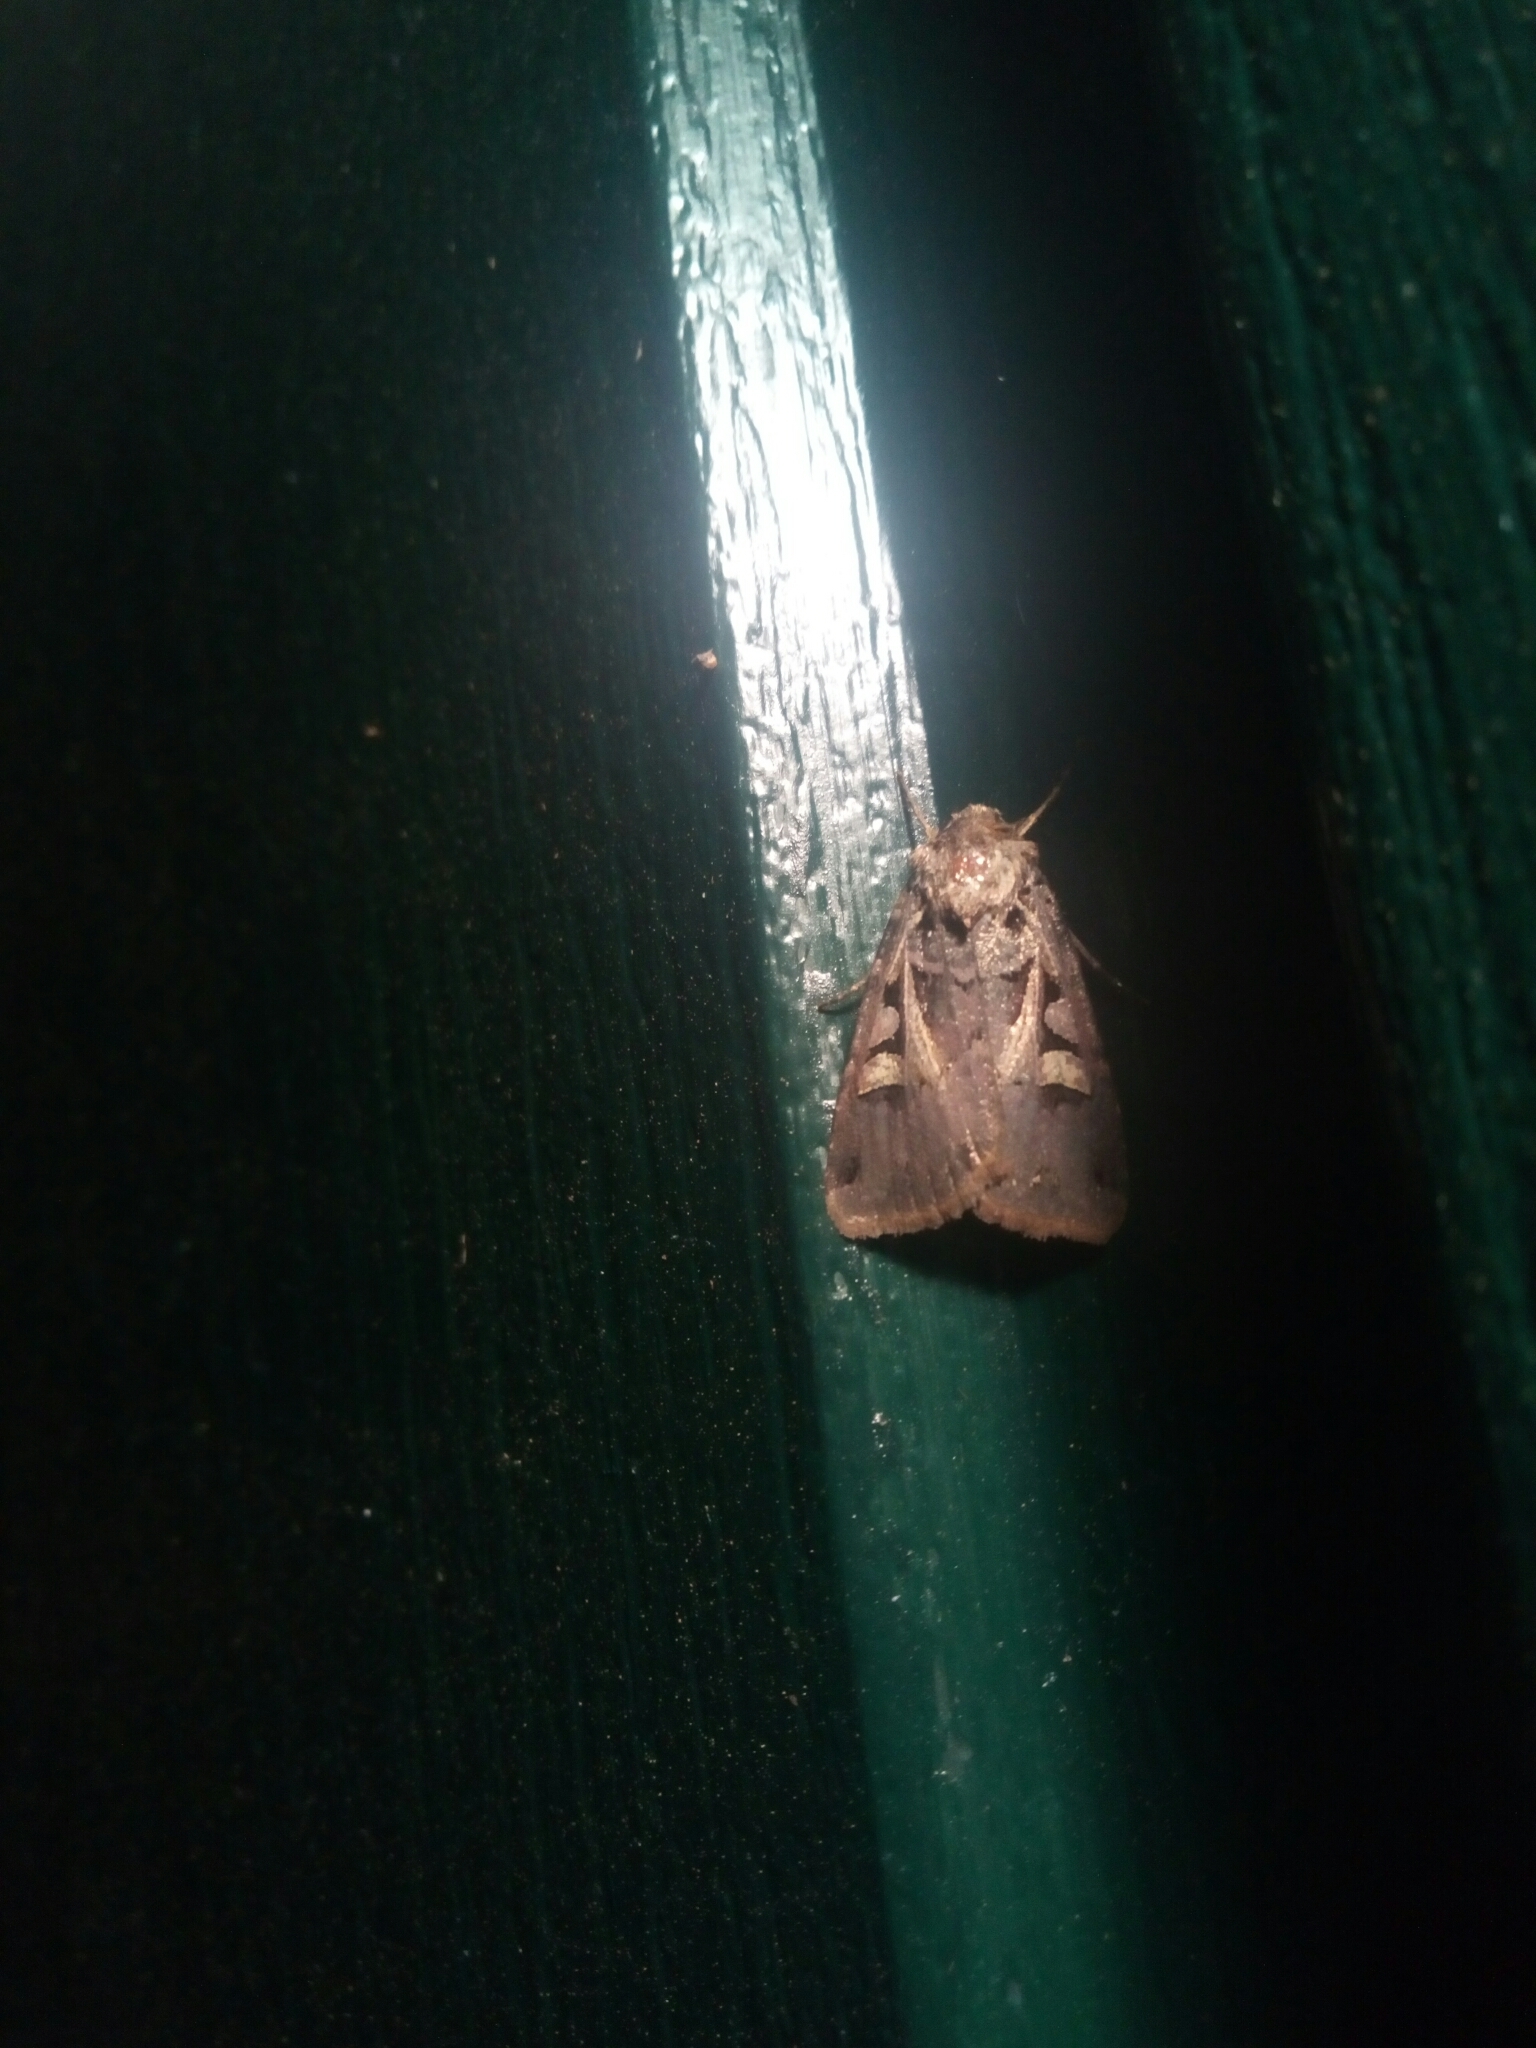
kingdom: Animalia
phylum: Arthropoda
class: Insecta
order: Lepidoptera
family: Noctuidae
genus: Feltia
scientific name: Feltia herilis
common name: Master's dart
